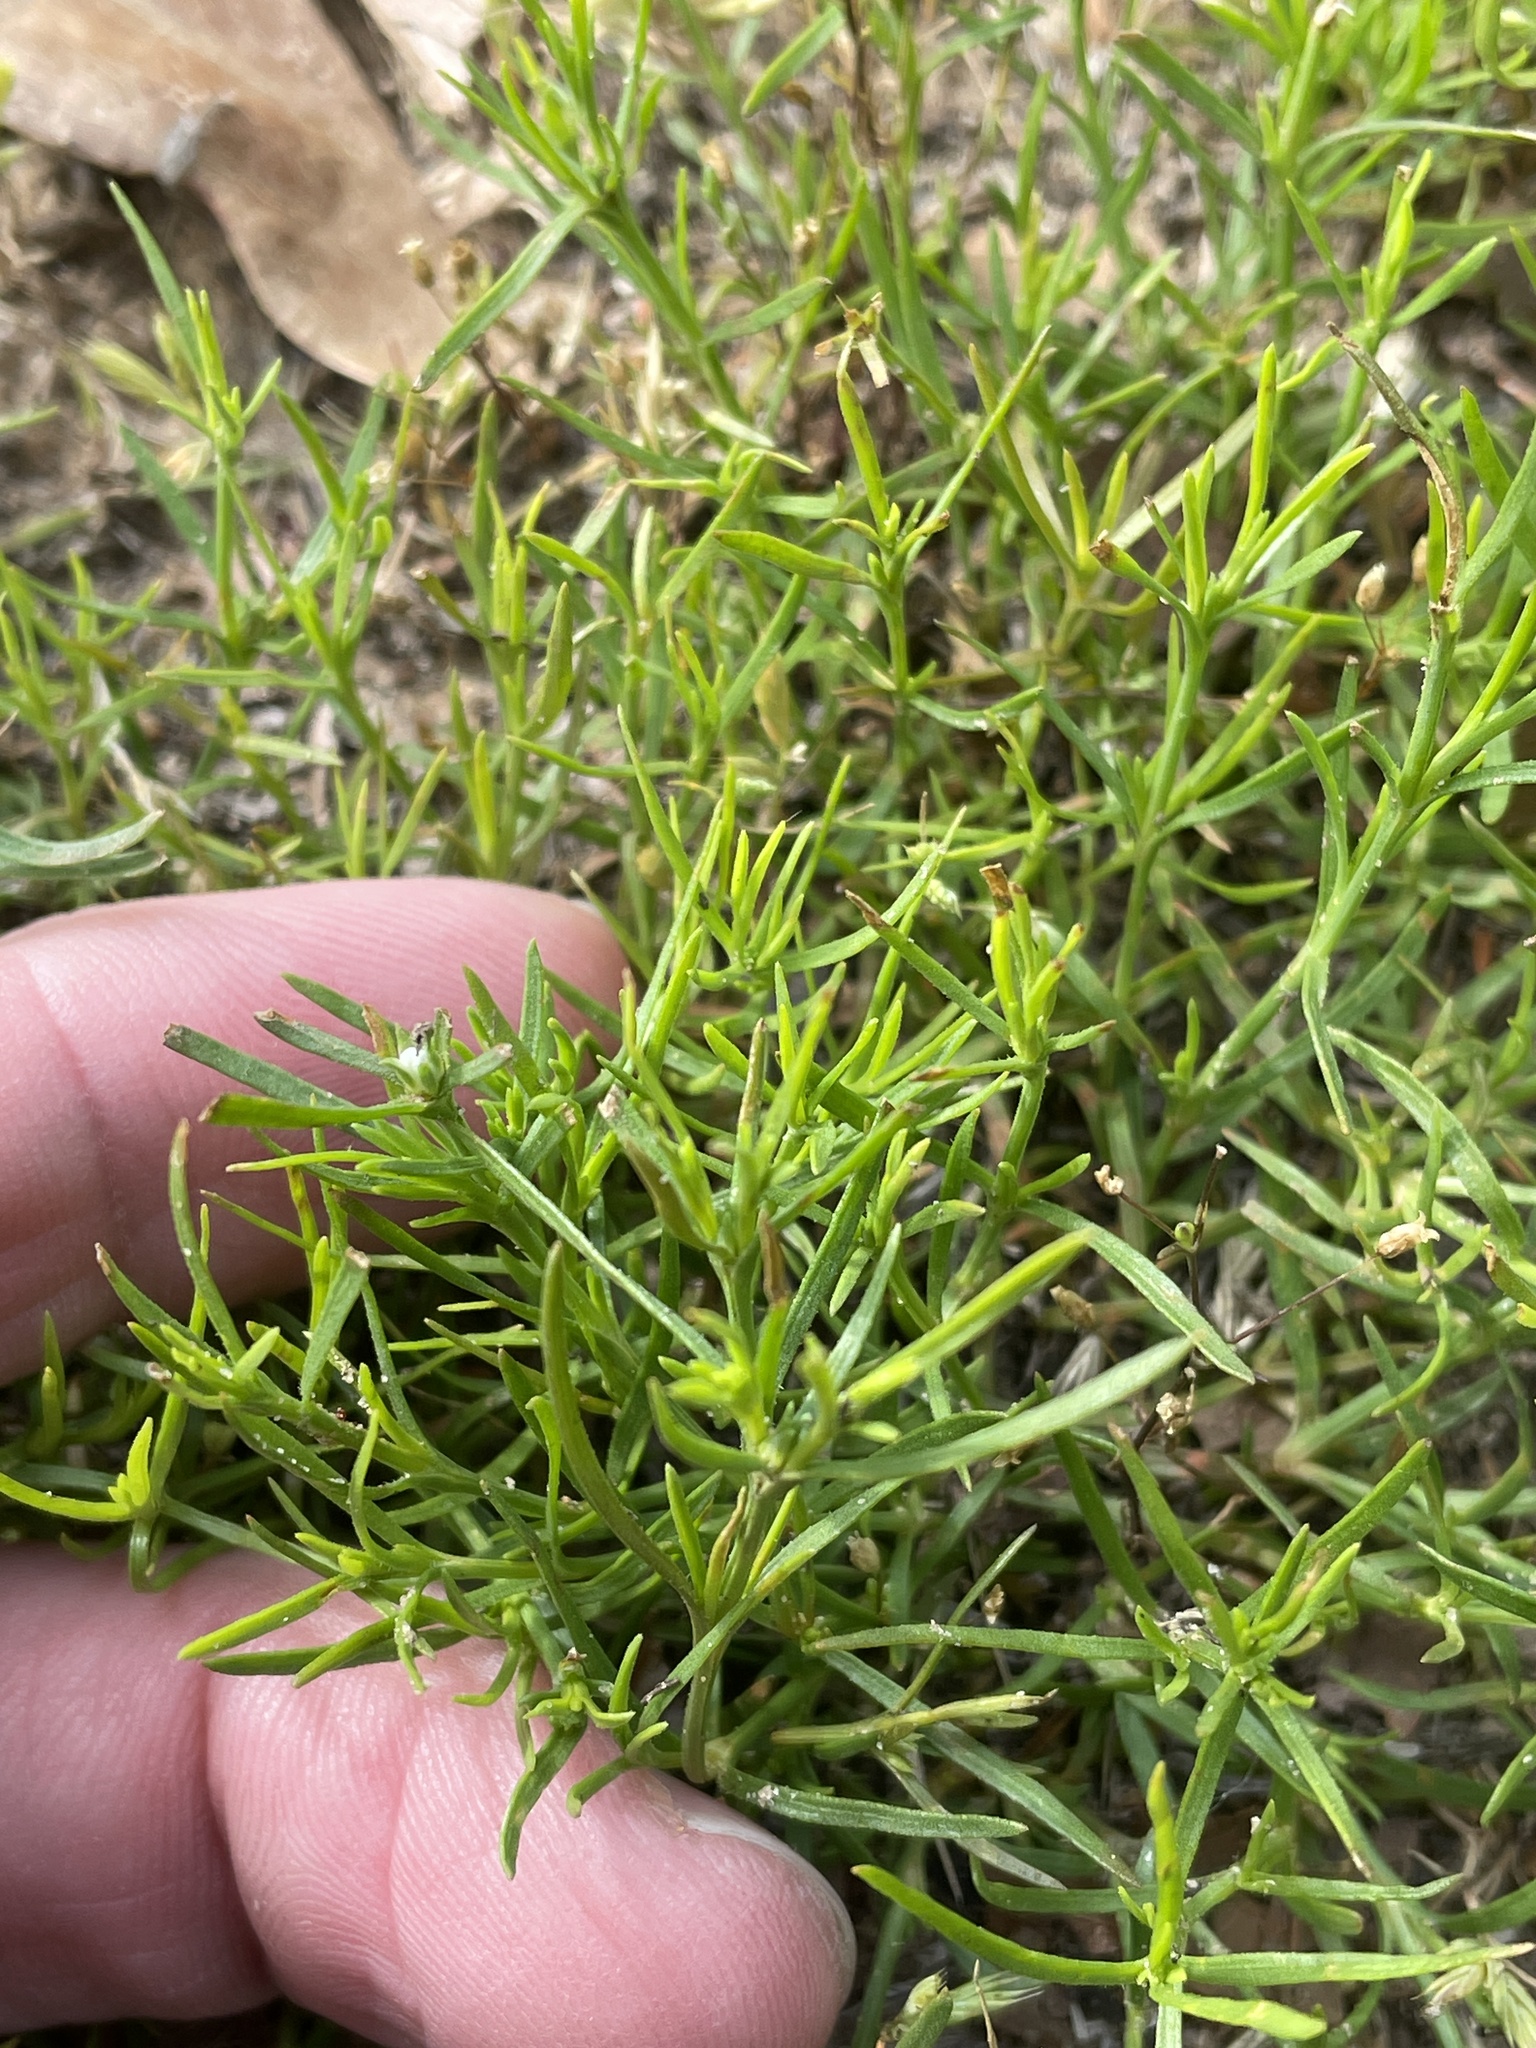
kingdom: Plantae
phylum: Tracheophyta
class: Magnoliopsida
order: Lamiales
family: Tetrachondraceae
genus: Polypremum
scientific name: Polypremum procumbens
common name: Juniper-leaf
